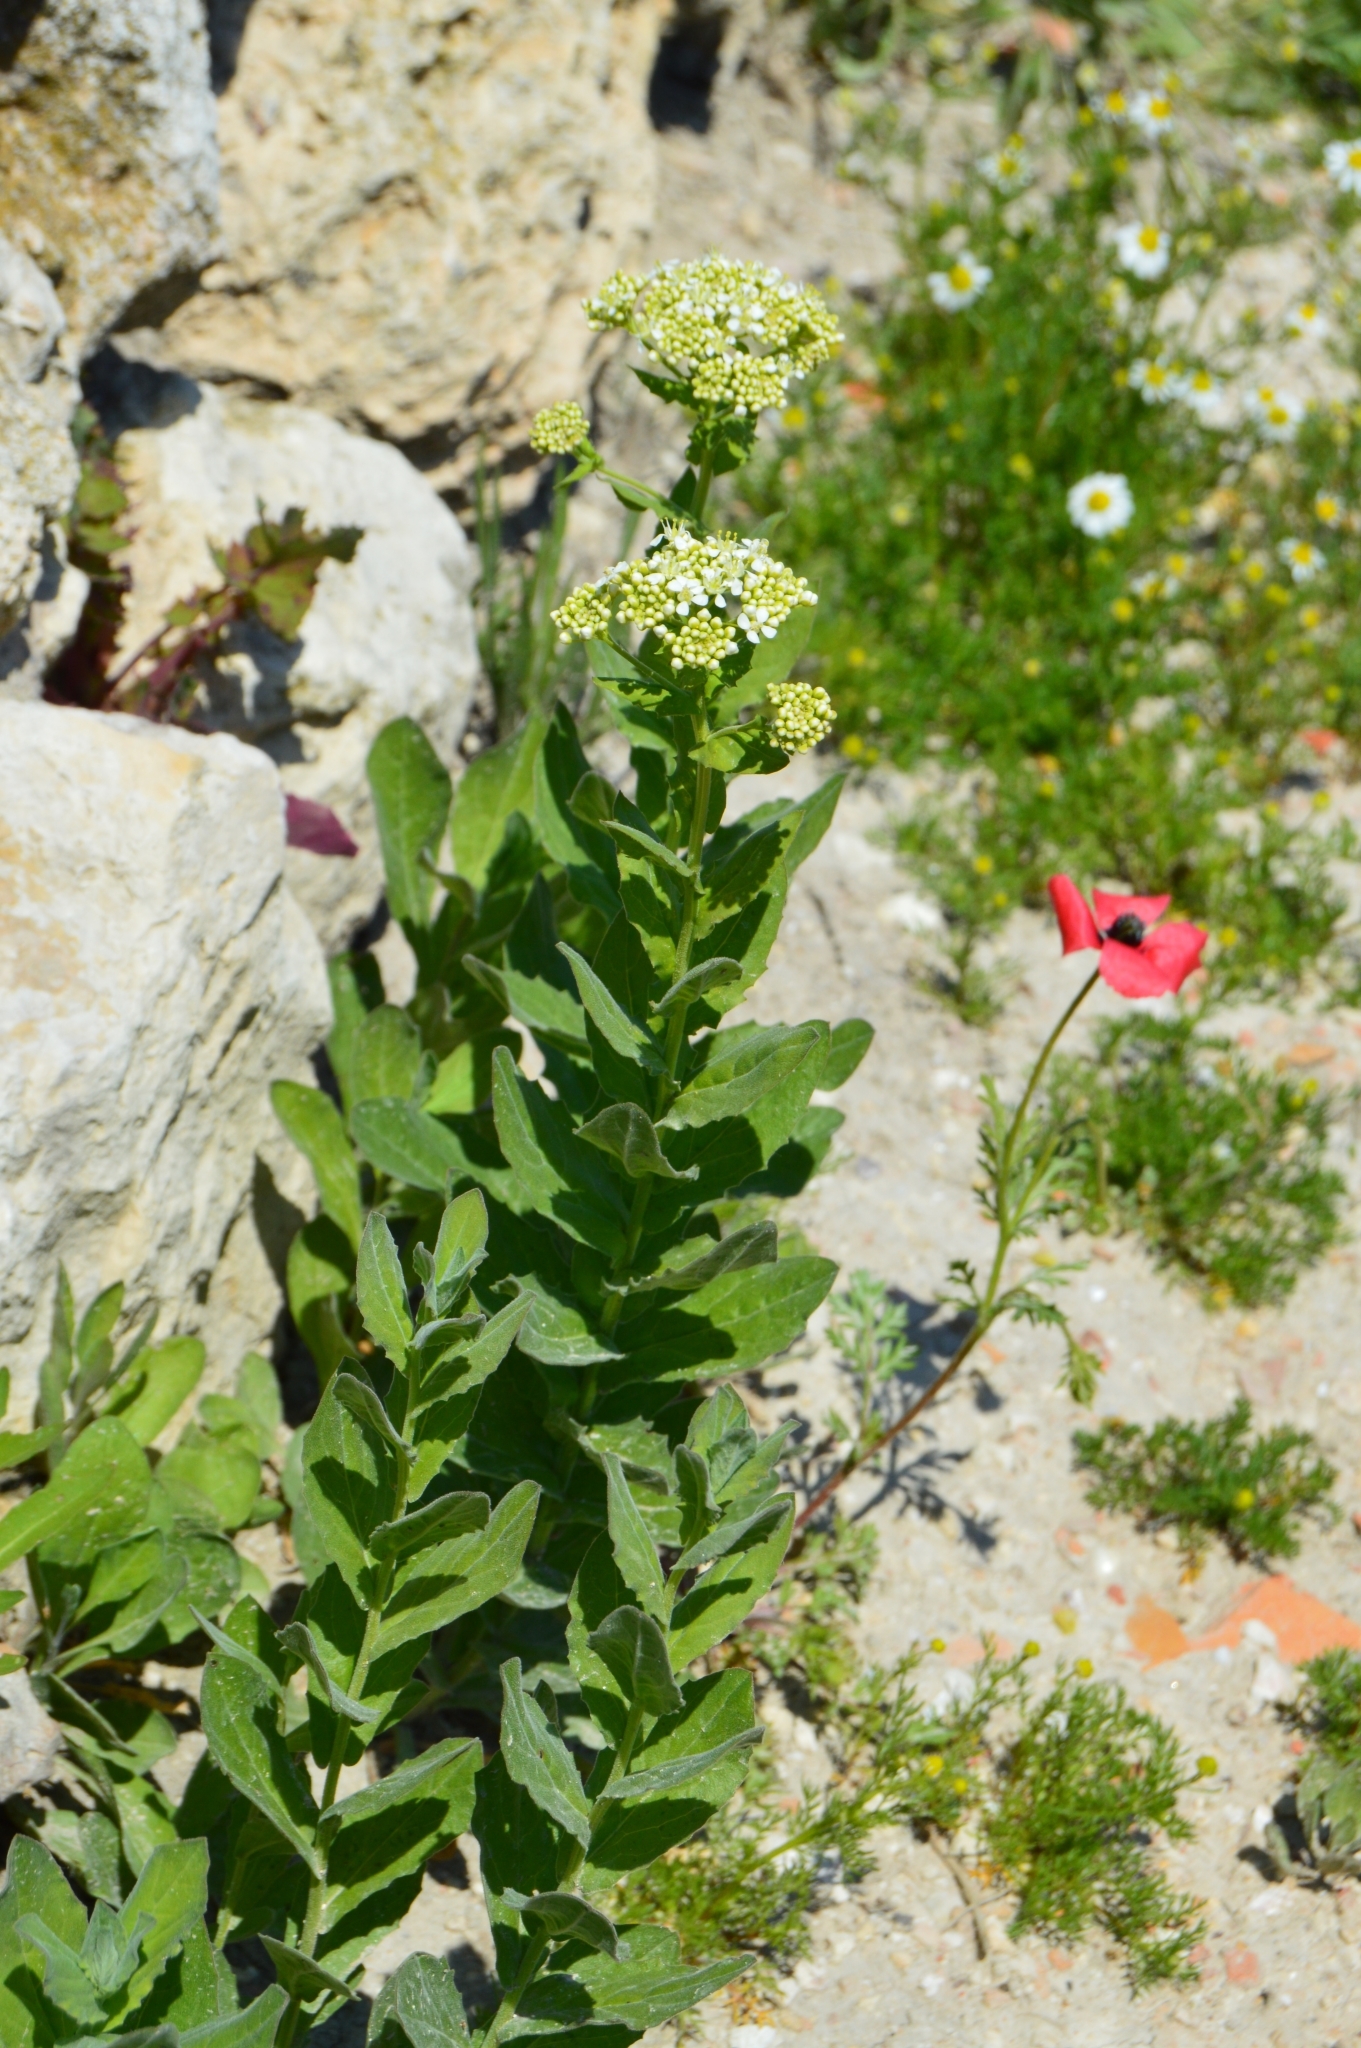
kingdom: Plantae
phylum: Tracheophyta
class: Magnoliopsida
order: Brassicales
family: Brassicaceae
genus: Lepidium
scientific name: Lepidium draba
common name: Hoary cress
